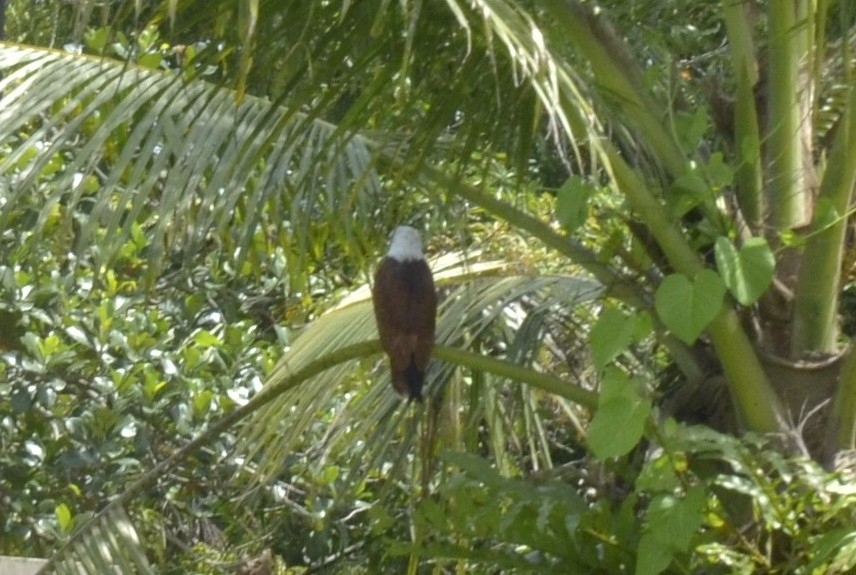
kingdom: Animalia
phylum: Chordata
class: Aves
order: Accipitriformes
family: Accipitridae
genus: Haliastur
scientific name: Haliastur indus
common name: Brahminy kite
